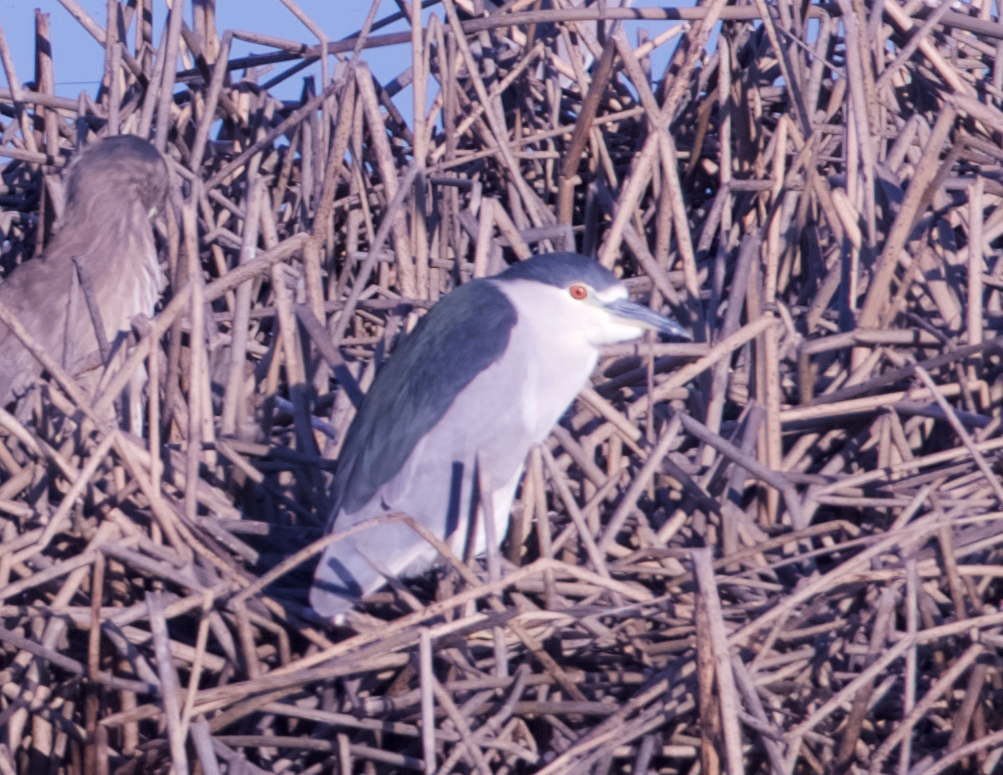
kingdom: Animalia
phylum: Chordata
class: Aves
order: Pelecaniformes
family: Ardeidae
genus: Nycticorax
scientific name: Nycticorax nycticorax
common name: Black-crowned night heron
